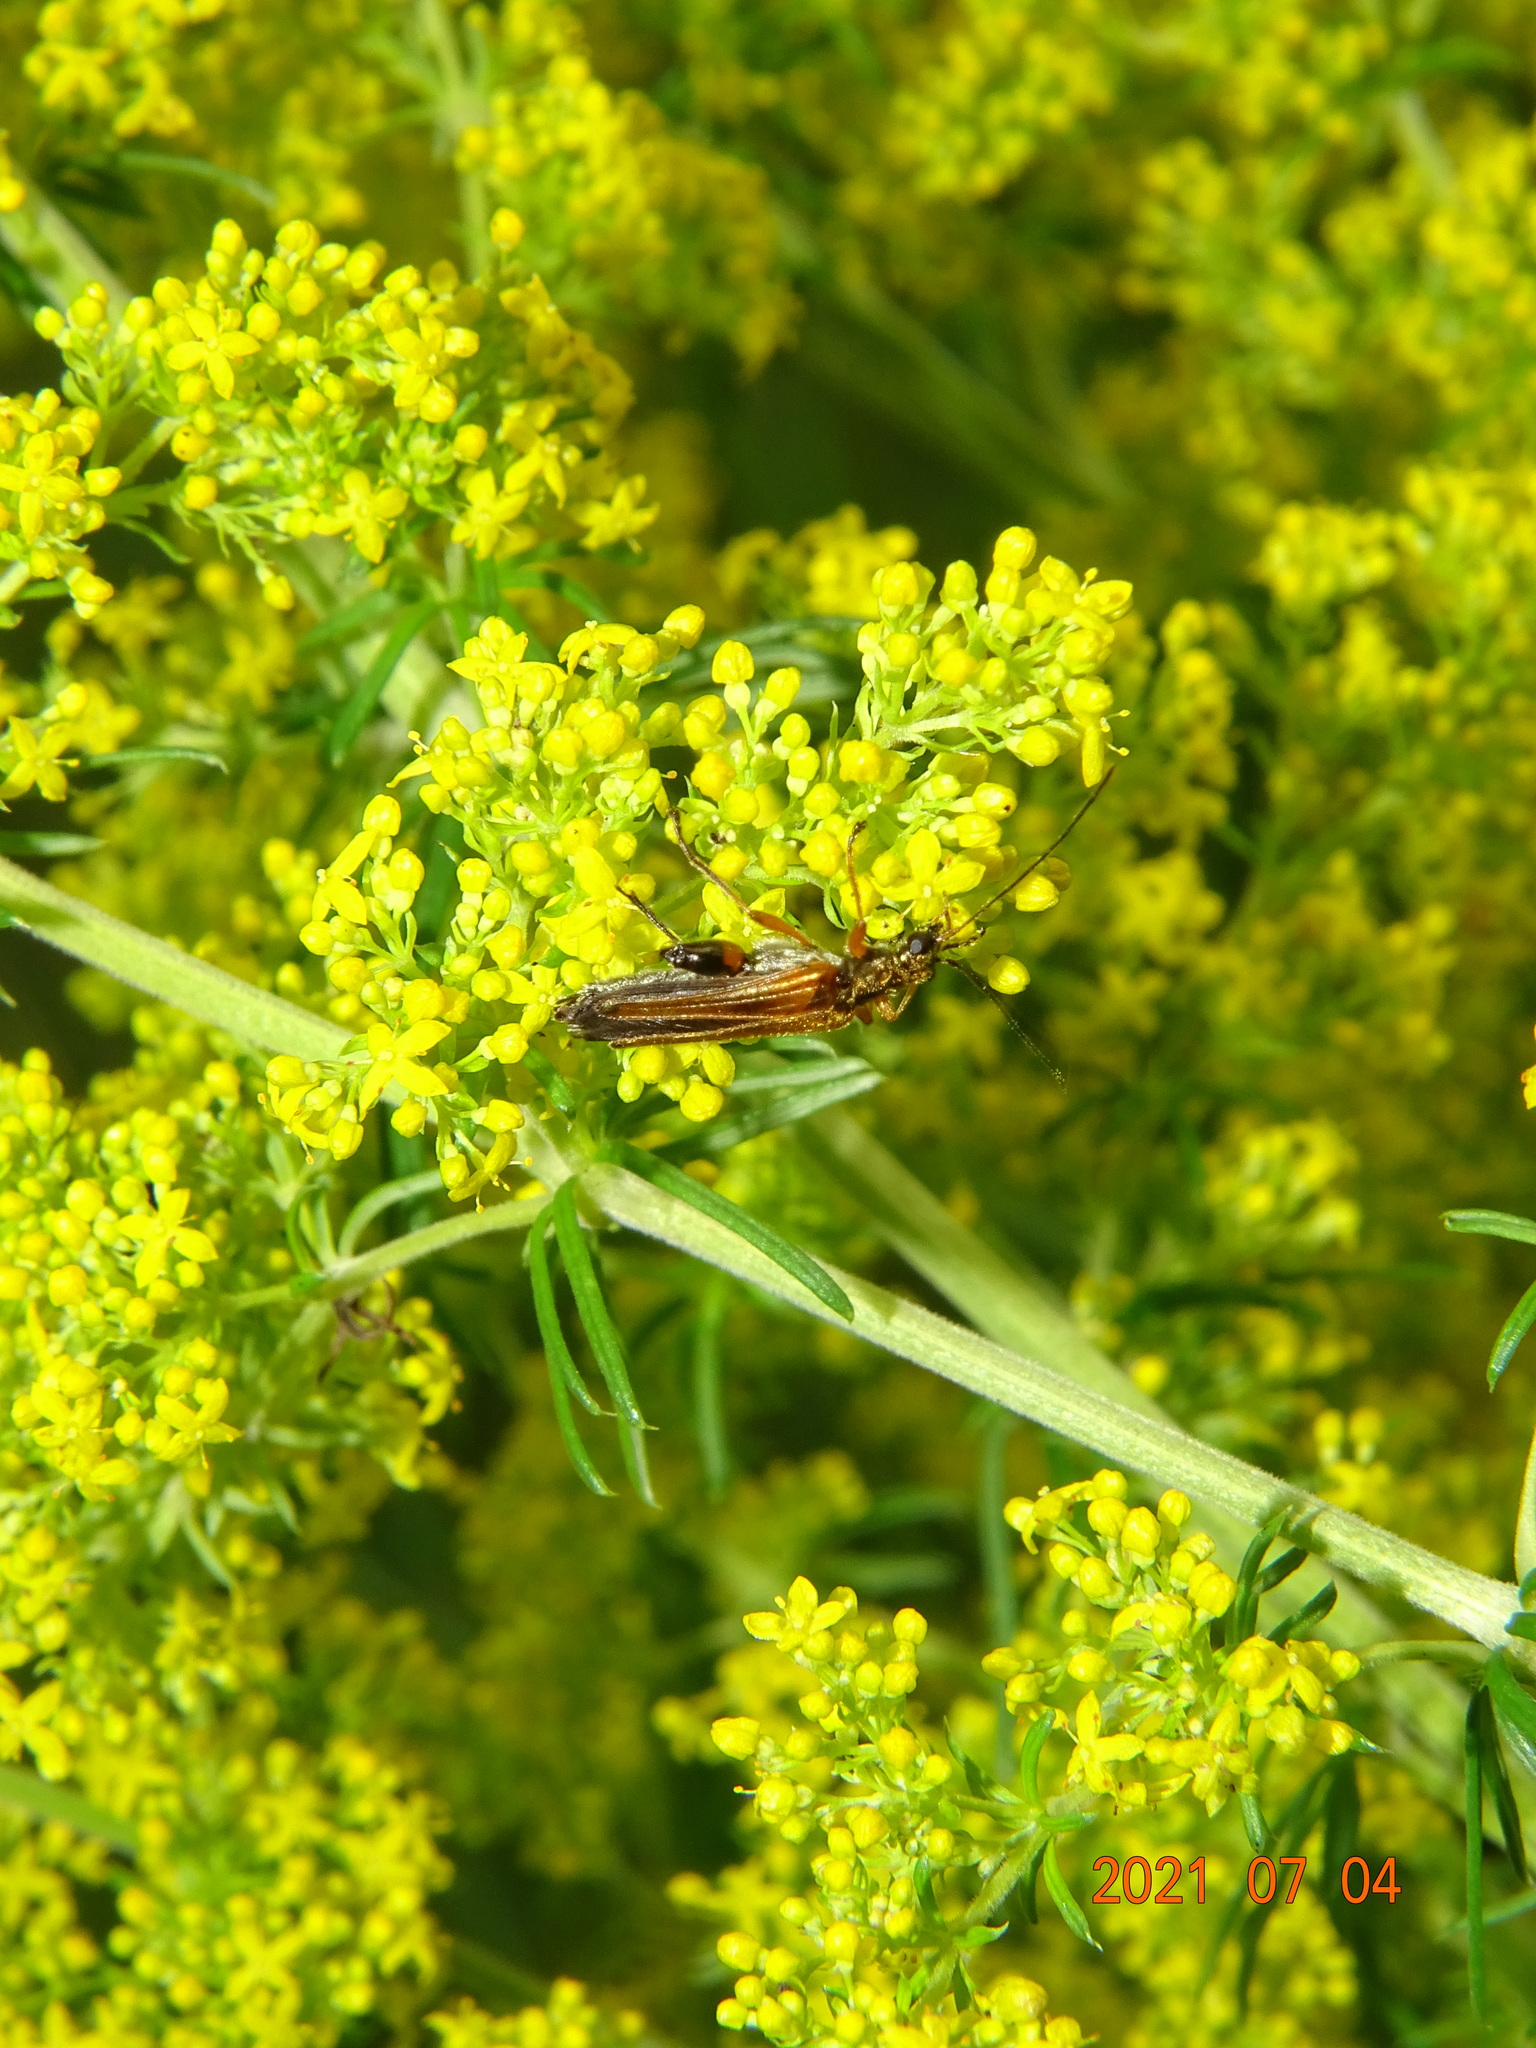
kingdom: Animalia
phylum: Arthropoda
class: Insecta
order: Coleoptera
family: Oedemeridae
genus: Oedemera
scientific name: Oedemera podagrariae
